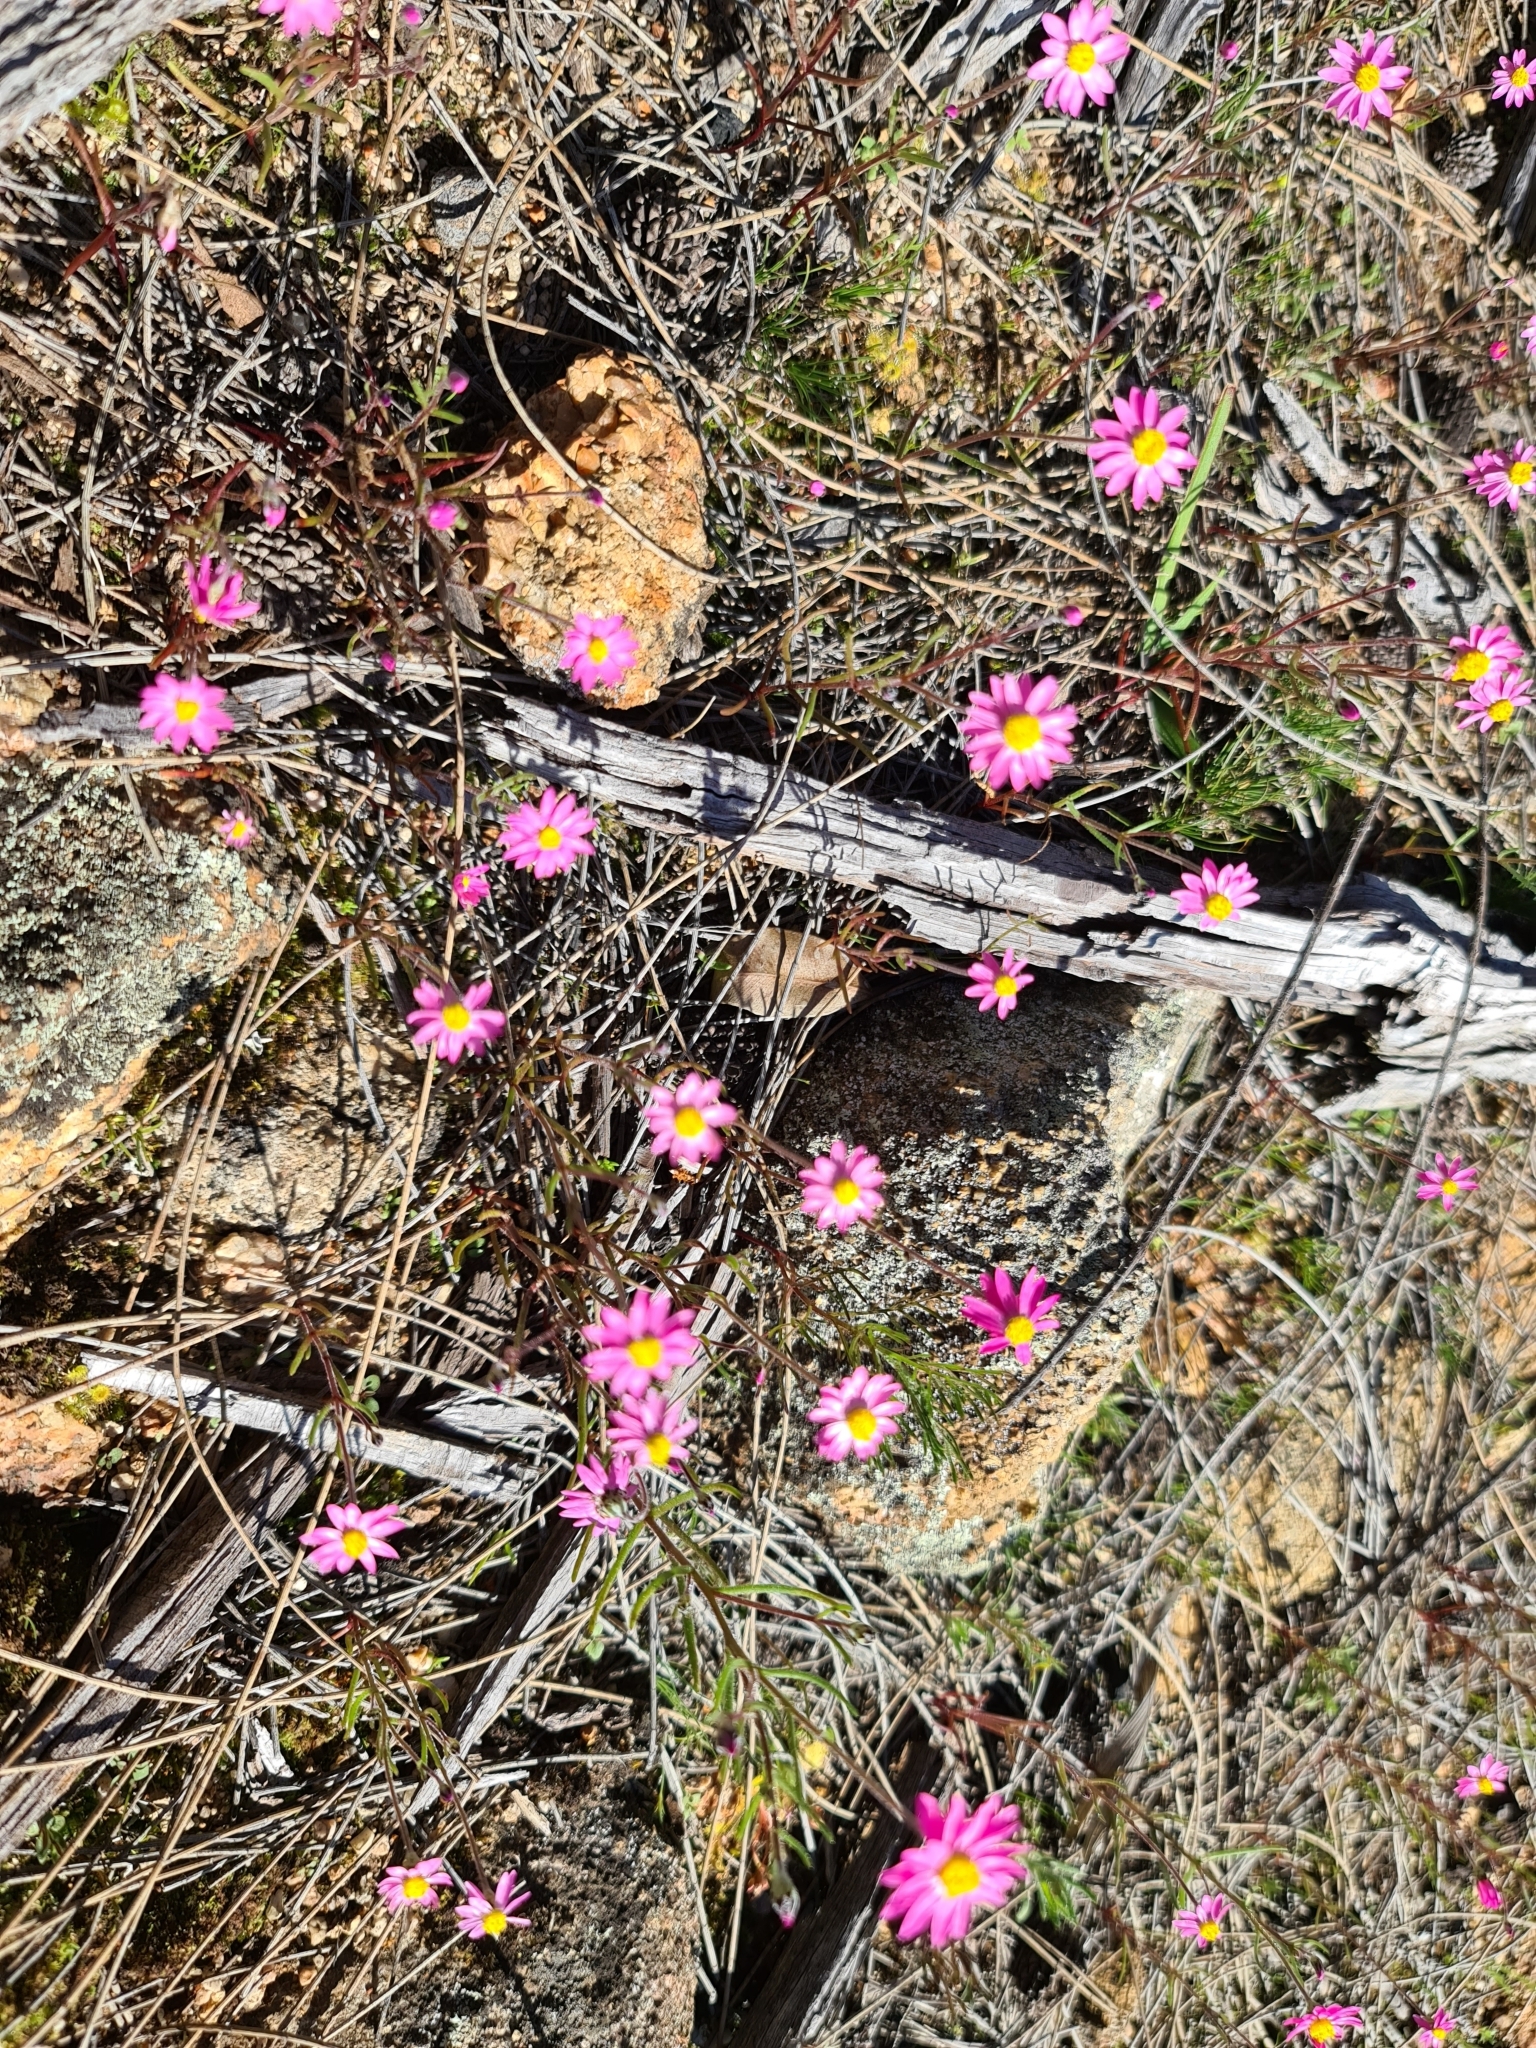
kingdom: Plantae
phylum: Tracheophyta
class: Magnoliopsida
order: Asterales
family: Asteraceae
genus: Lawrencella
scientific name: Lawrencella rosea
